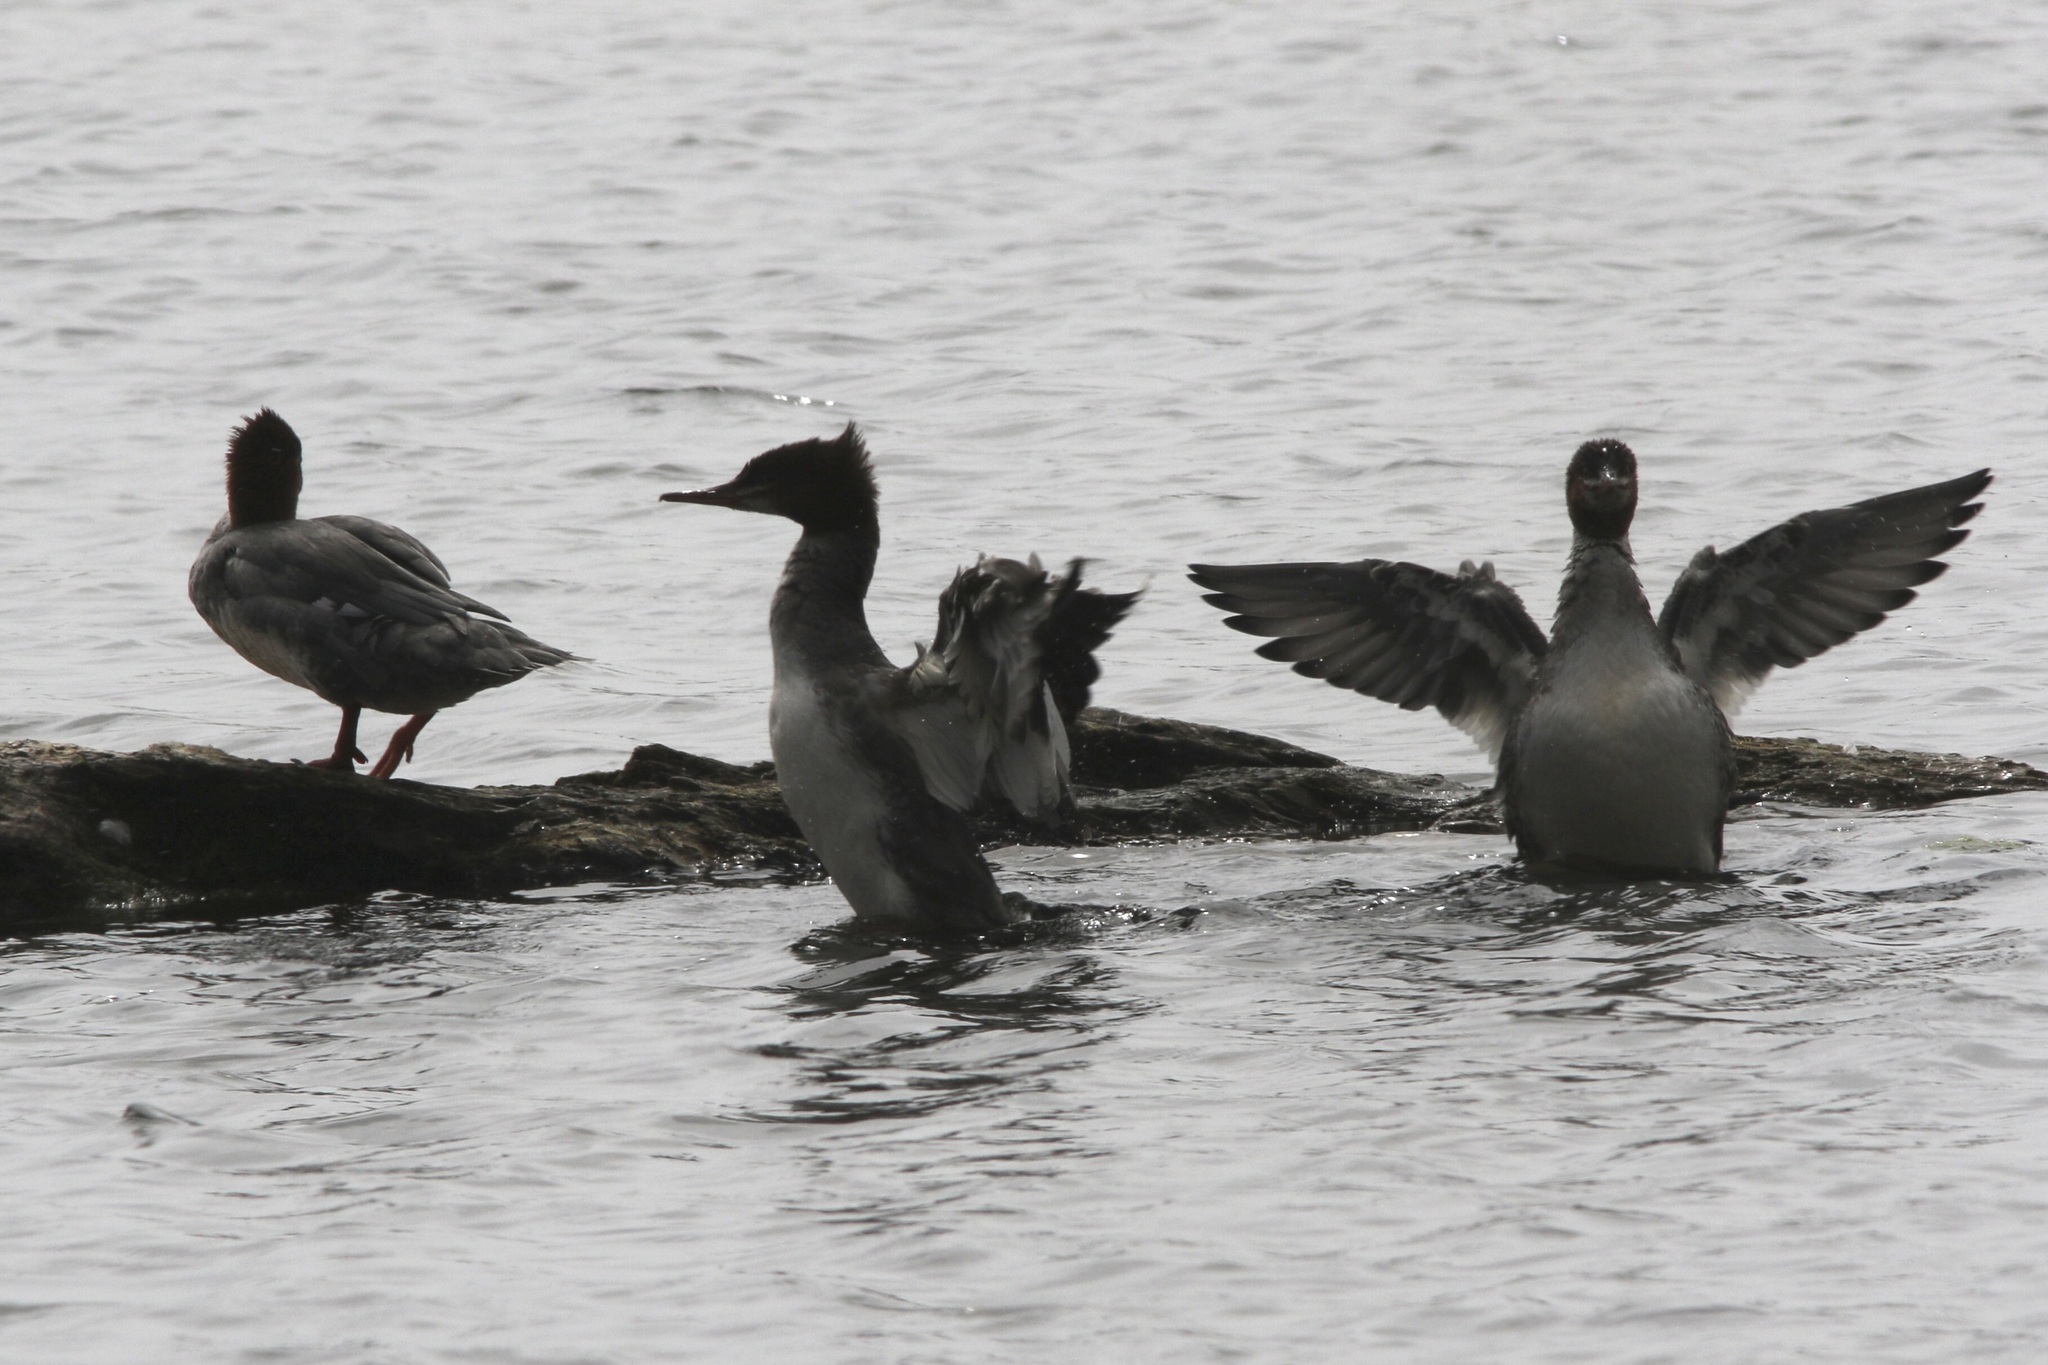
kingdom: Animalia
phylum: Chordata
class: Aves
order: Anseriformes
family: Anatidae
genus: Mergus
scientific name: Mergus merganser
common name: Common merganser
